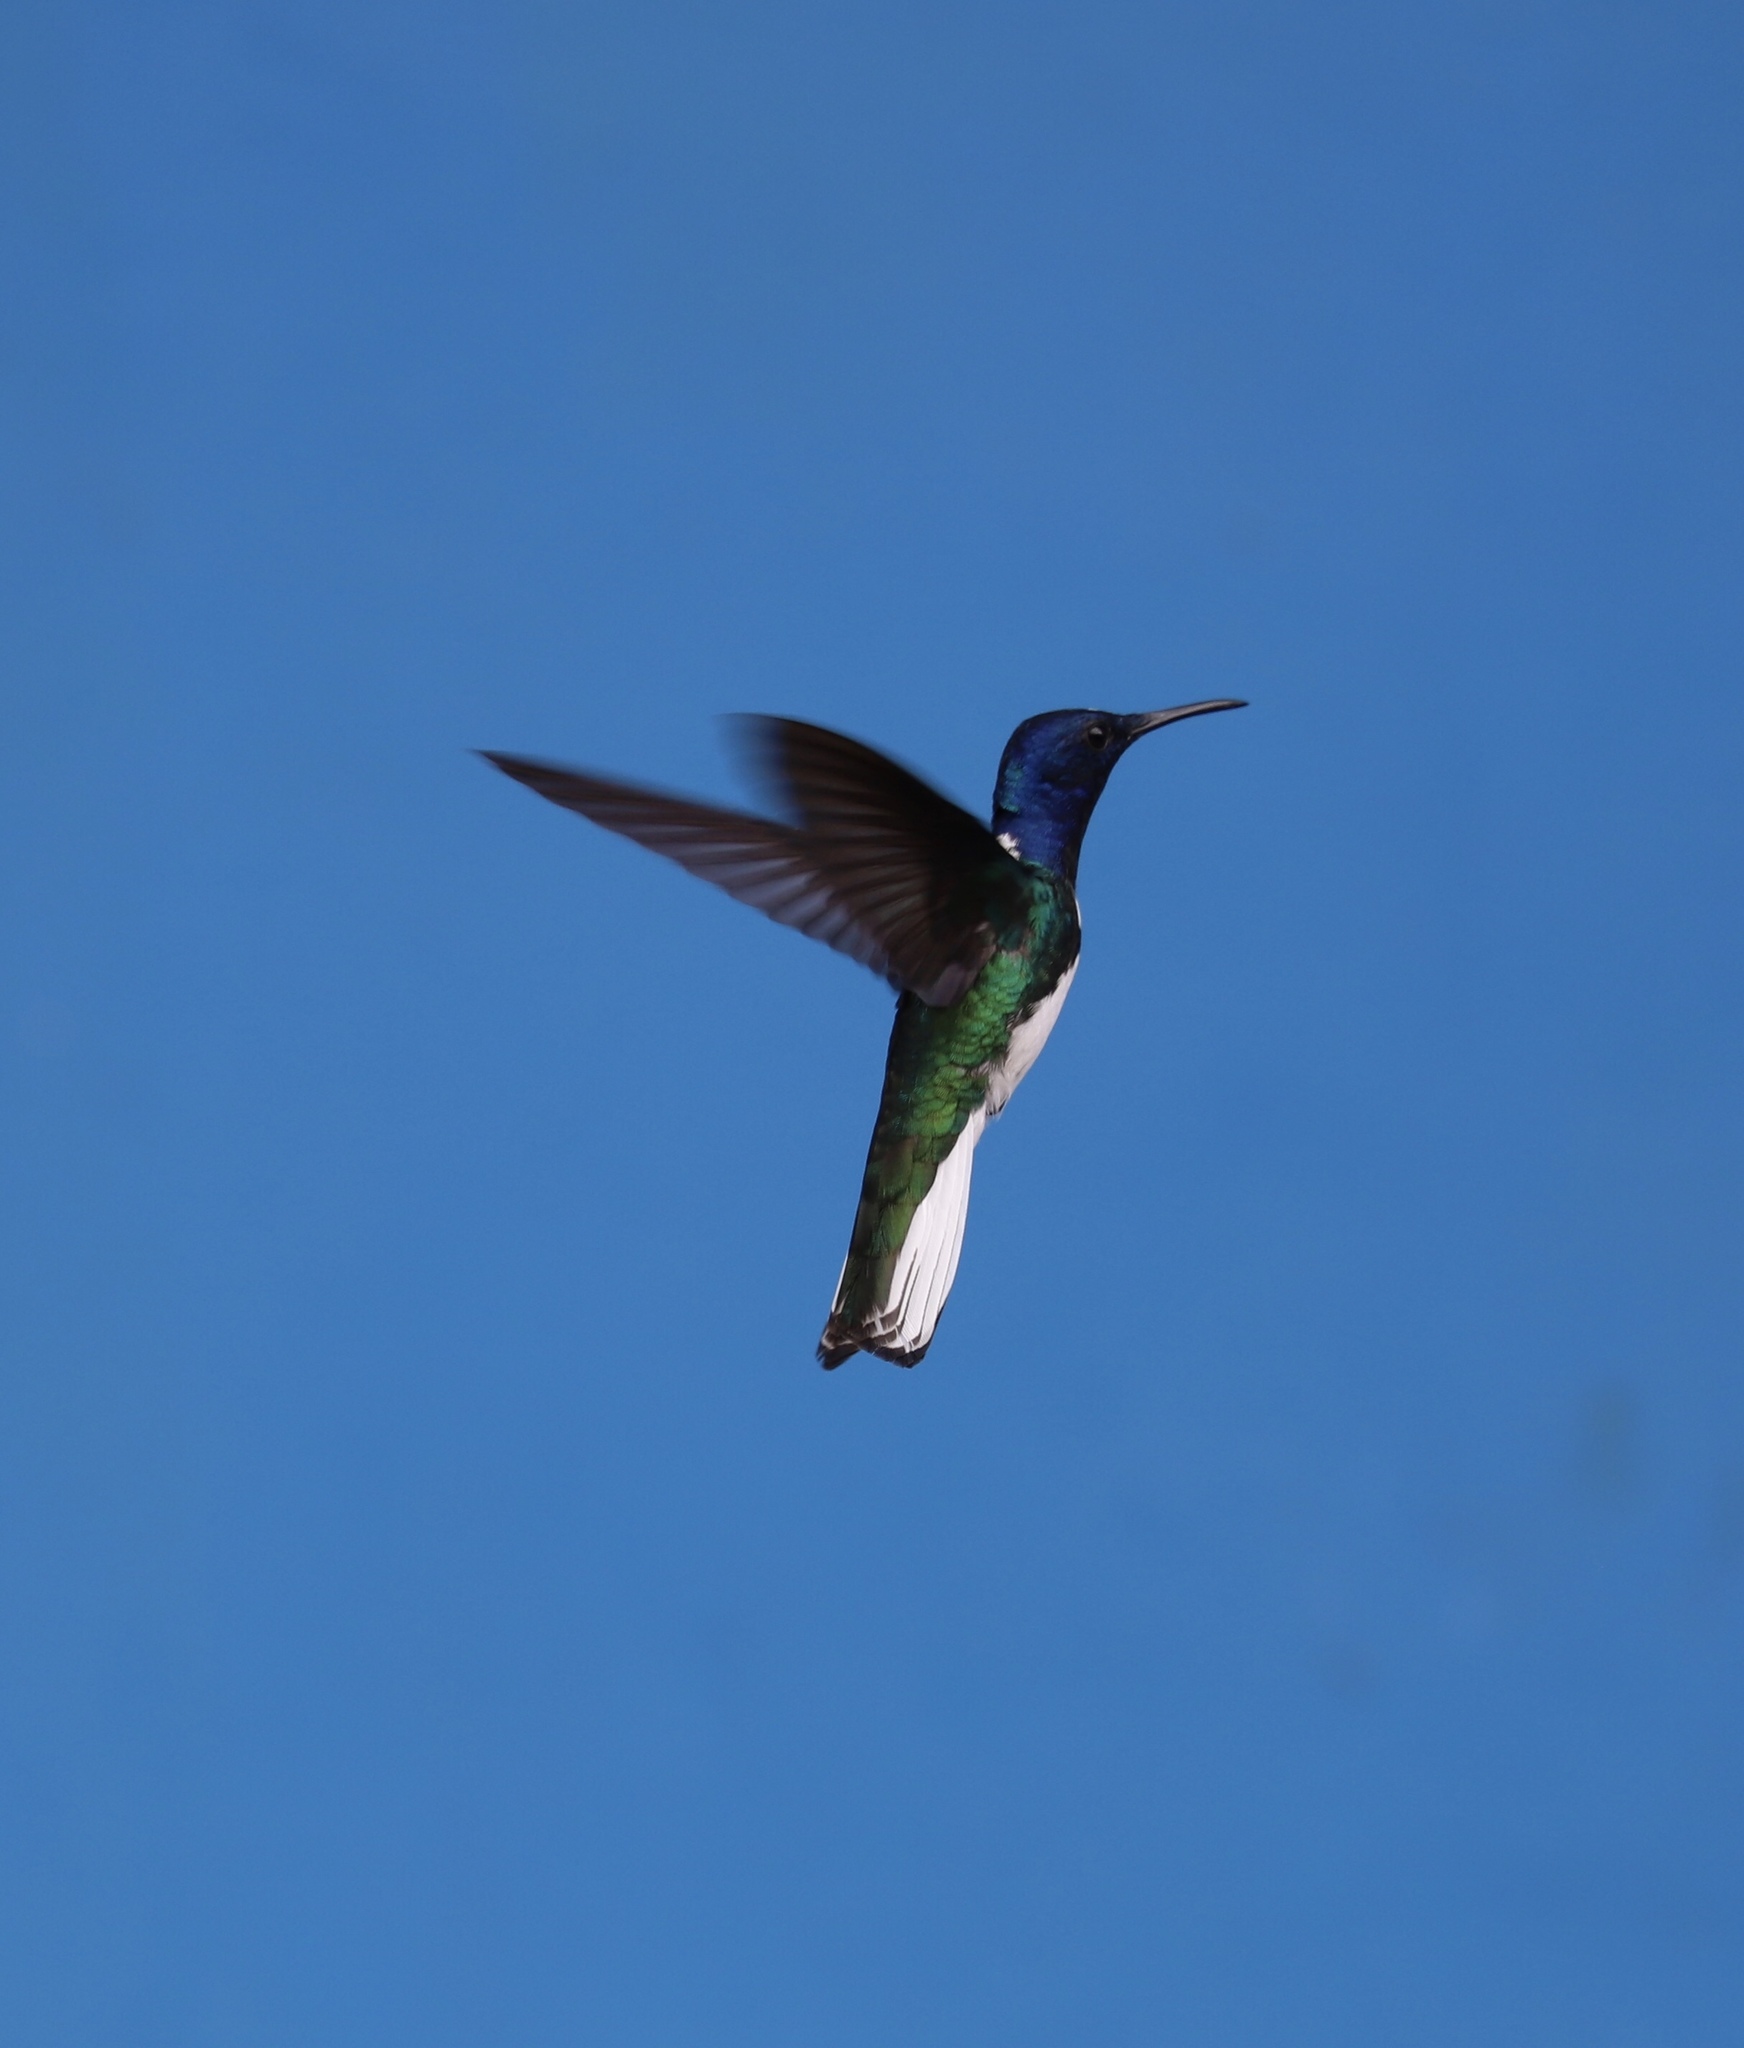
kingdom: Animalia
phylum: Chordata
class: Aves
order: Apodiformes
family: Trochilidae
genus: Florisuga
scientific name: Florisuga mellivora
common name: White-necked jacobin
